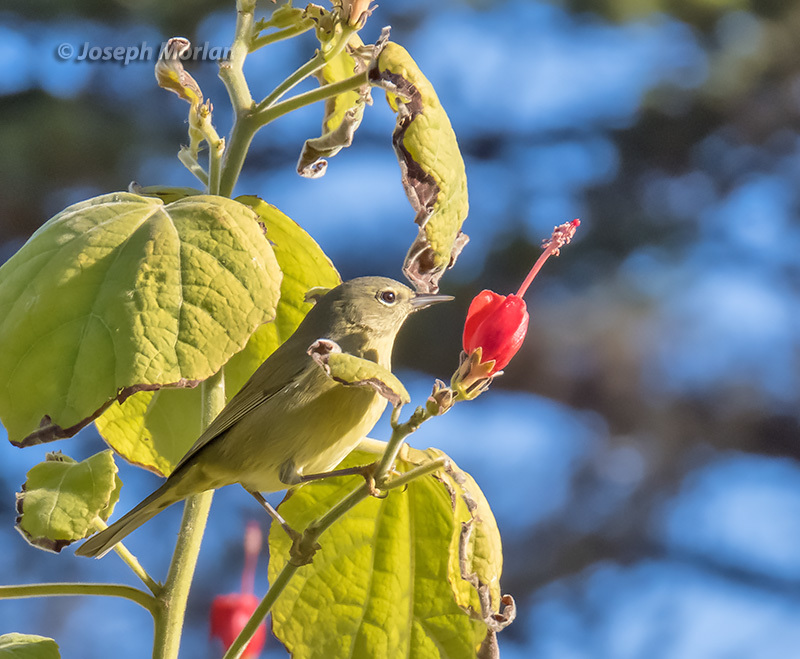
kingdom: Animalia
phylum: Chordata
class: Aves
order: Passeriformes
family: Parulidae
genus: Leiothlypis
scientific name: Leiothlypis celata
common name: Orange-crowned warbler
